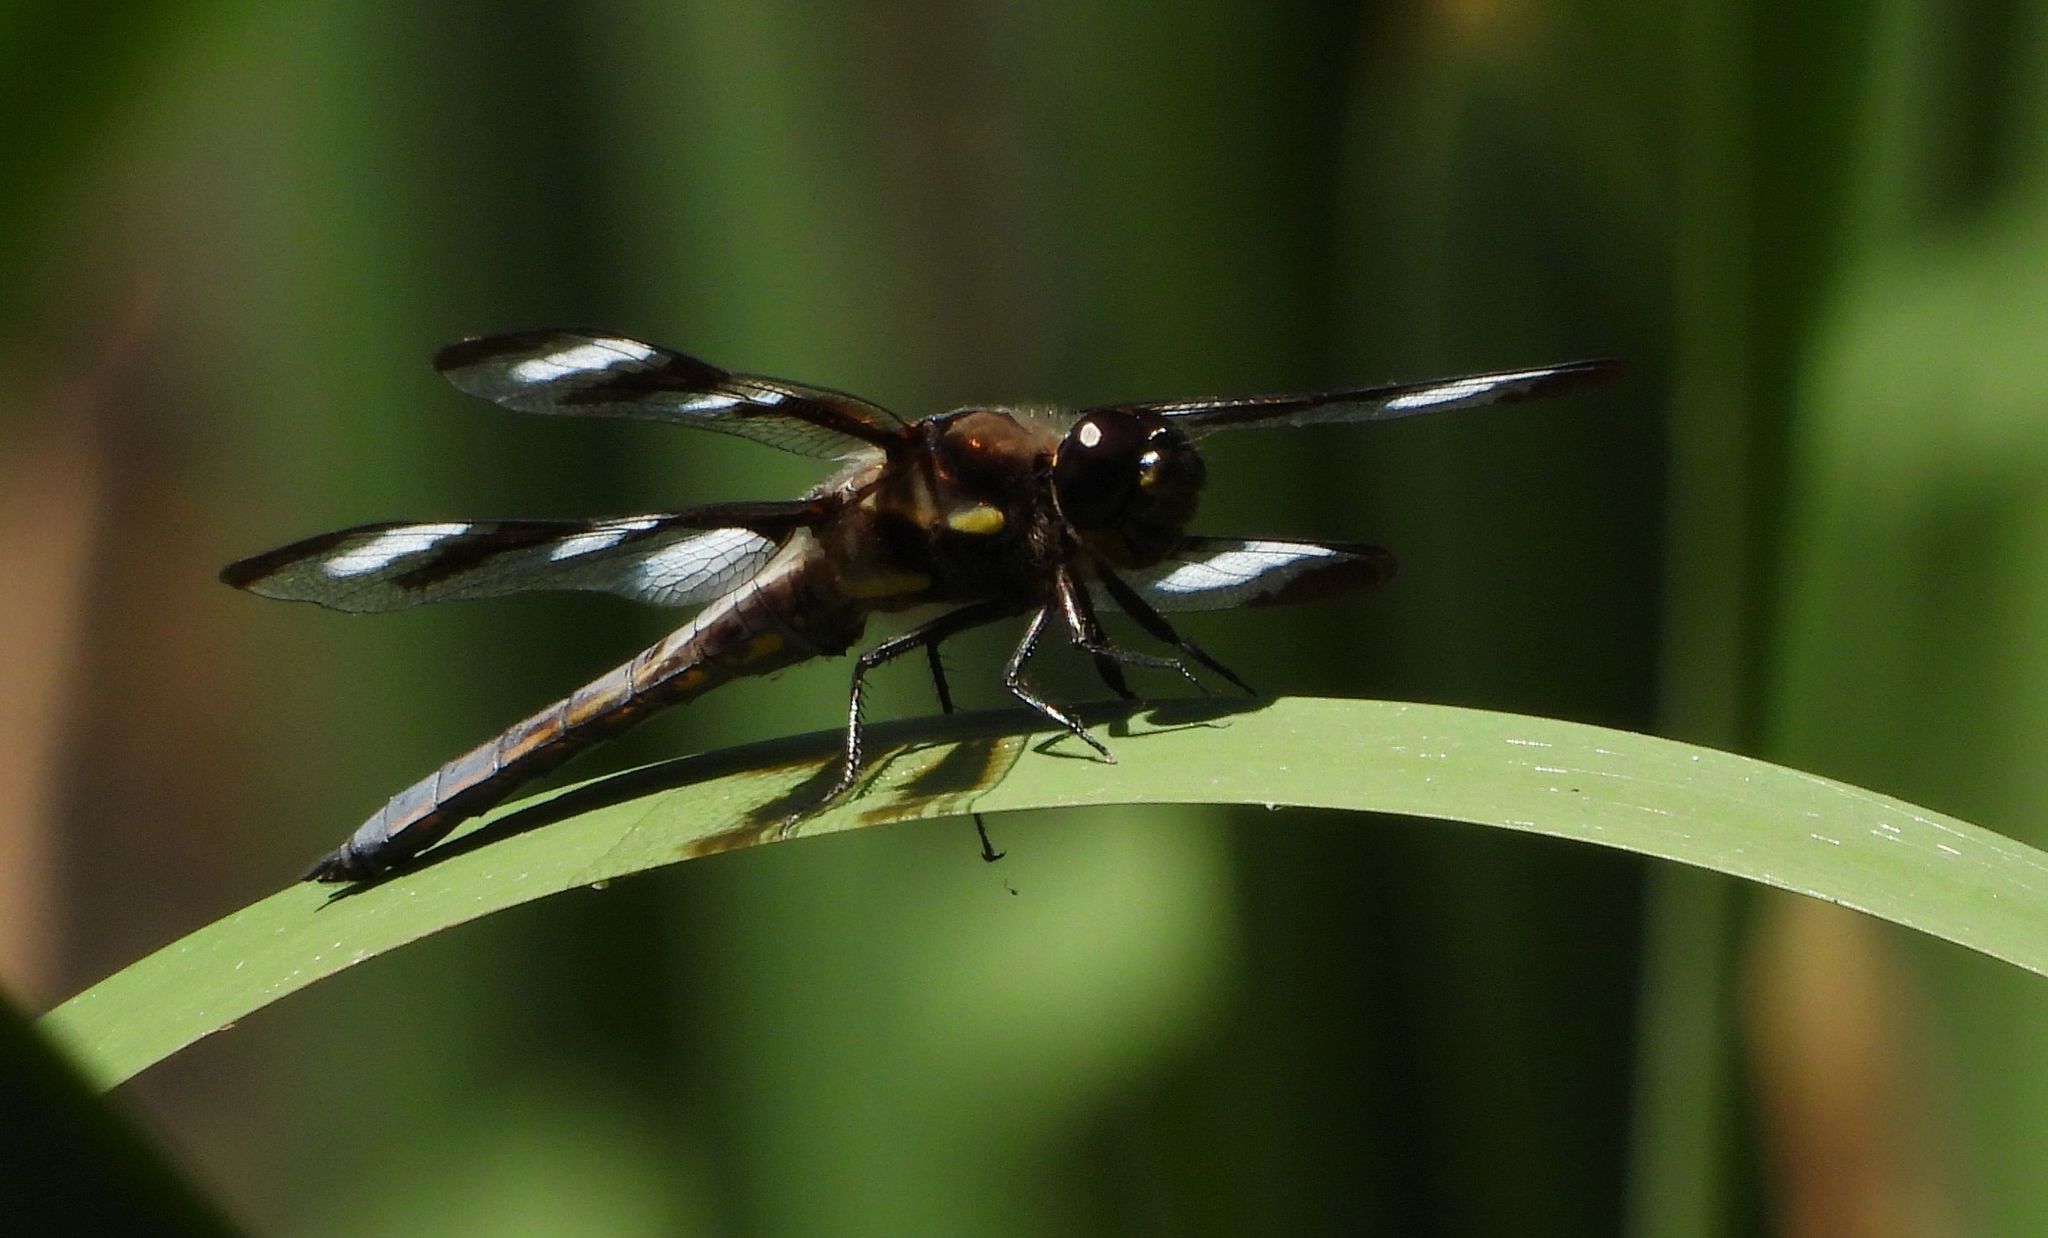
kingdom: Animalia
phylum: Arthropoda
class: Insecta
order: Odonata
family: Libellulidae
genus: Libellula
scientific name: Libellula pulchella
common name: Twelve-spotted skimmer
